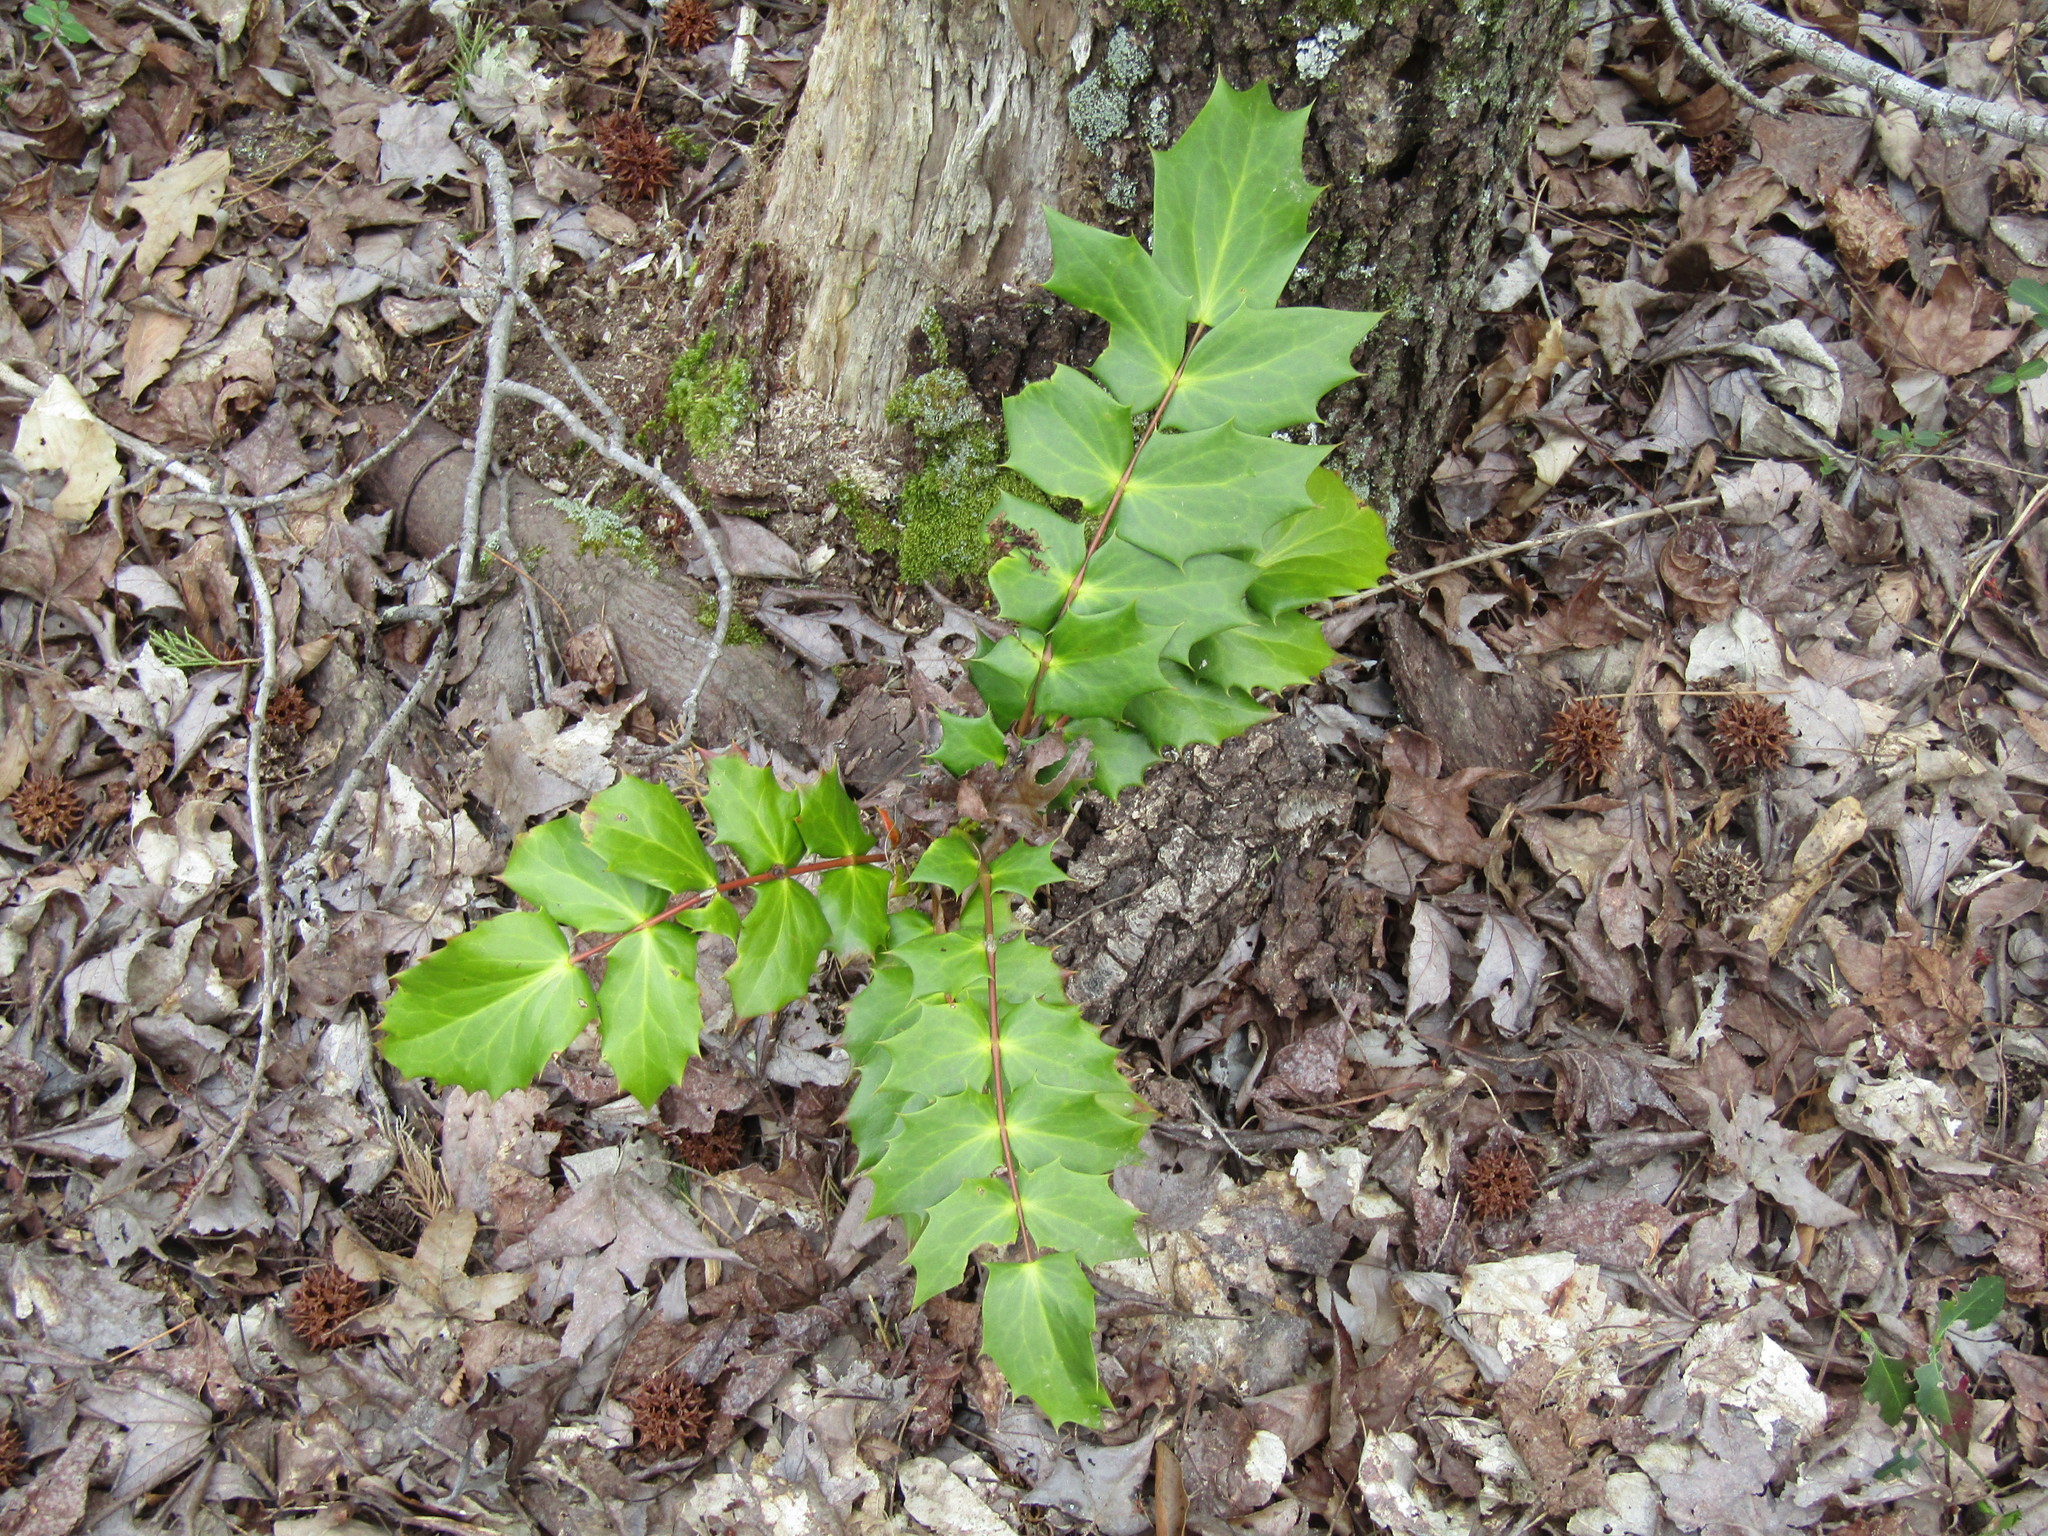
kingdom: Plantae
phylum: Tracheophyta
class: Magnoliopsida
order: Ranunculales
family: Berberidaceae
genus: Mahonia
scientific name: Mahonia bealei
